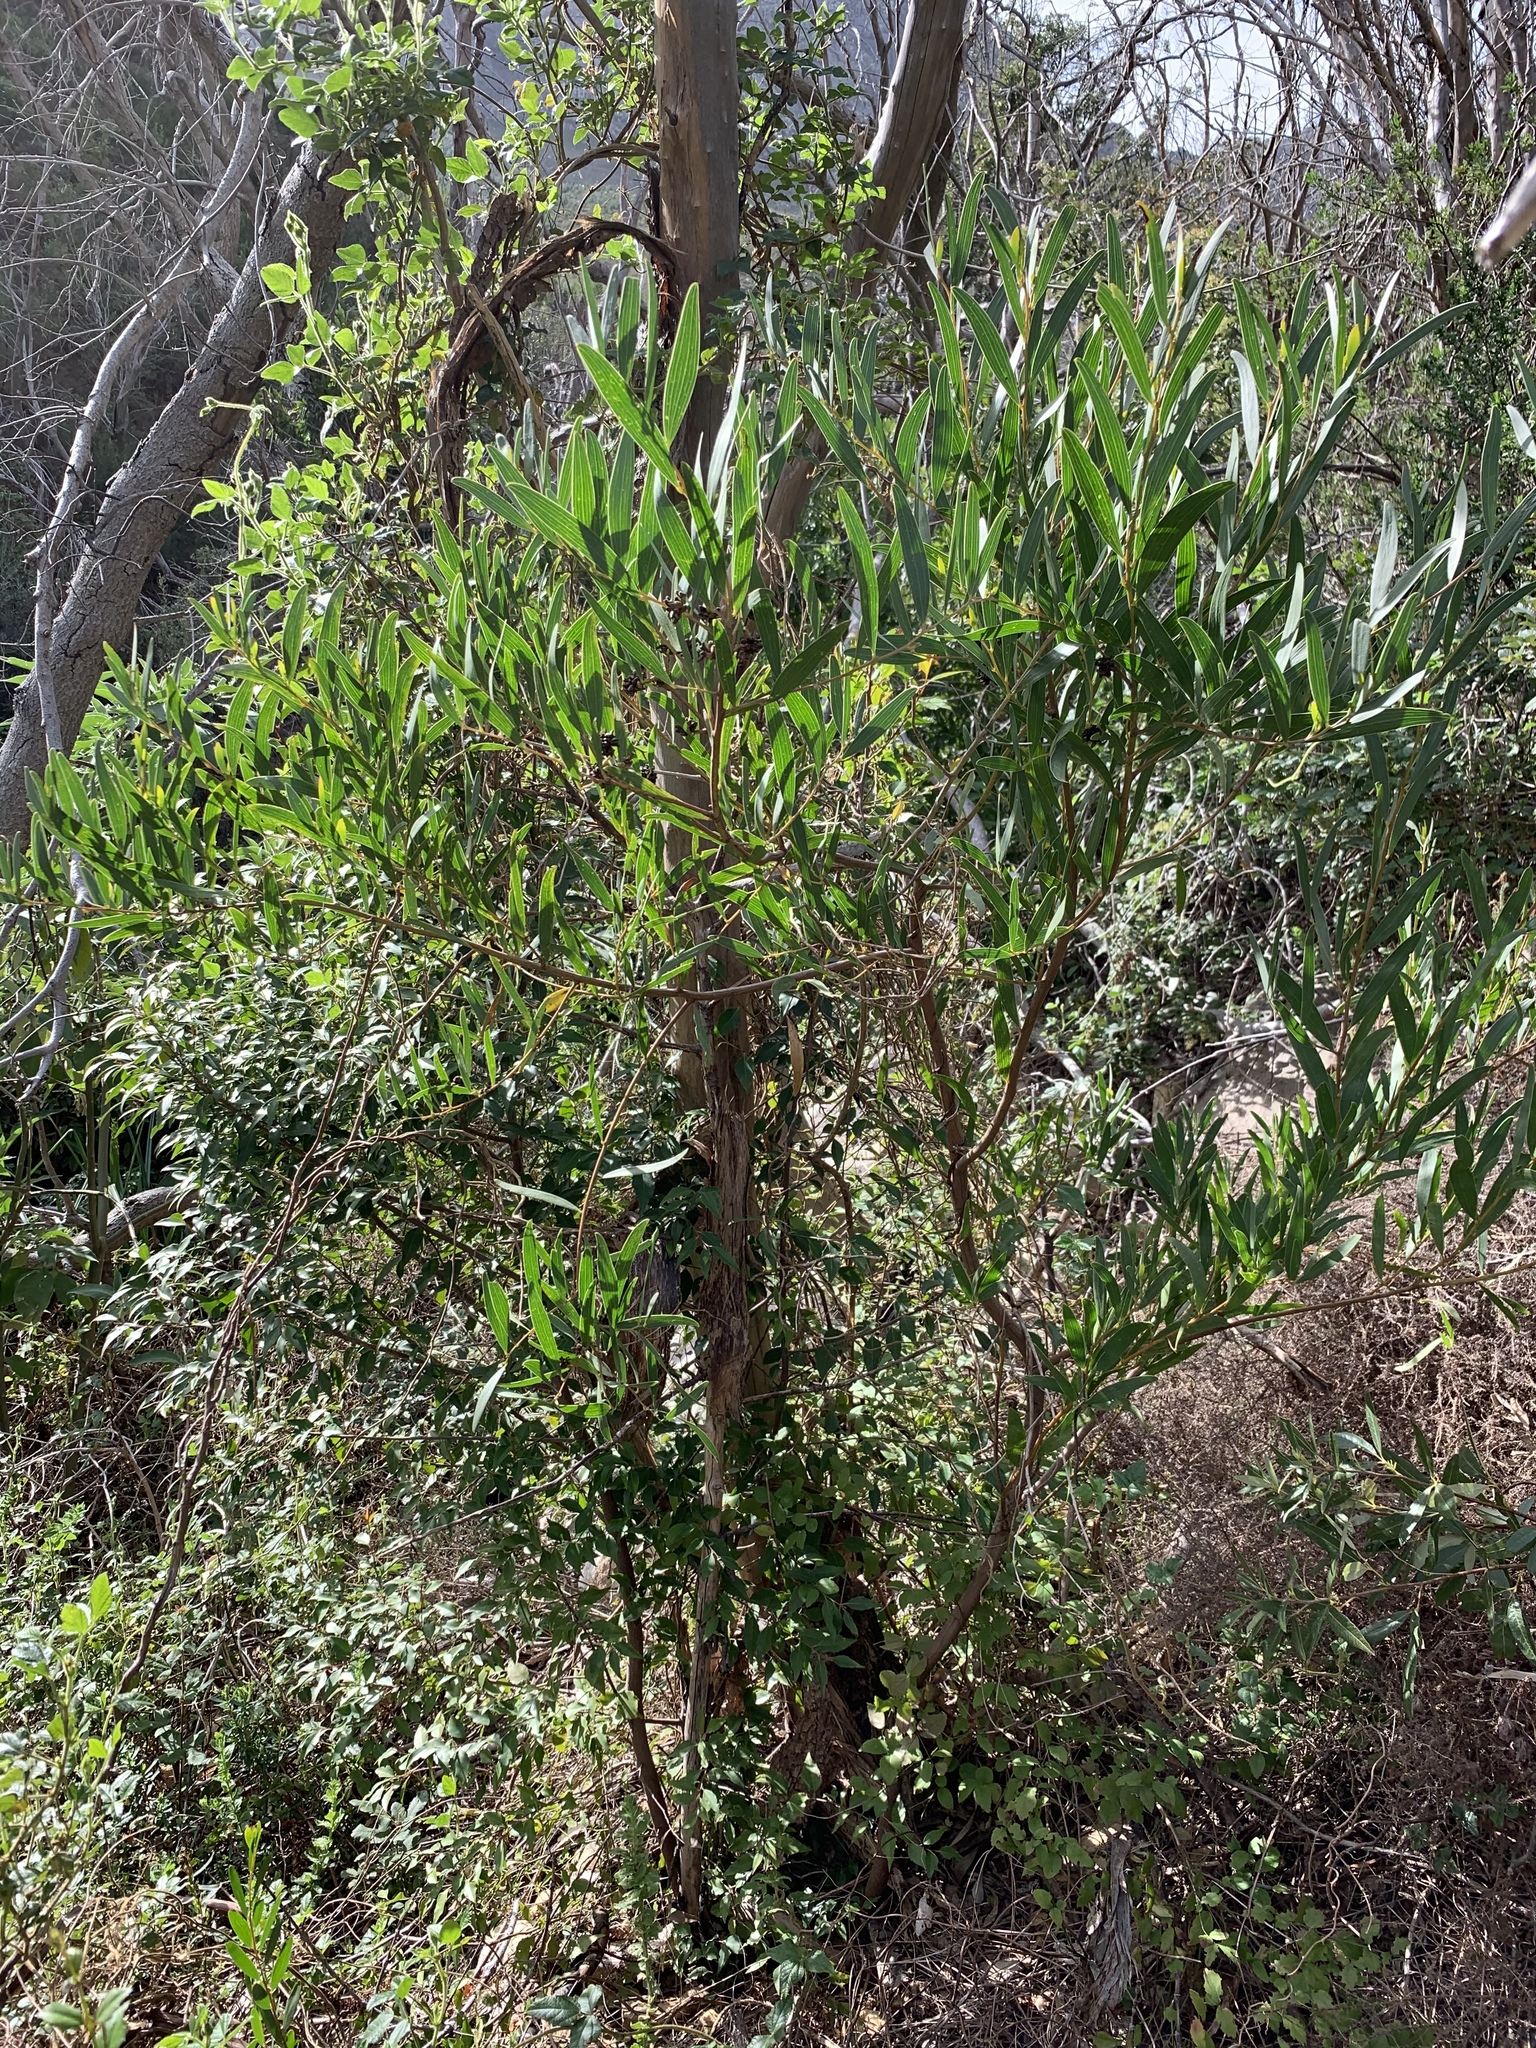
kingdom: Plantae
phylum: Tracheophyta
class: Magnoliopsida
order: Fabales
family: Fabaceae
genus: Acacia
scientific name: Acacia cyclops
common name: Coastal wattle
